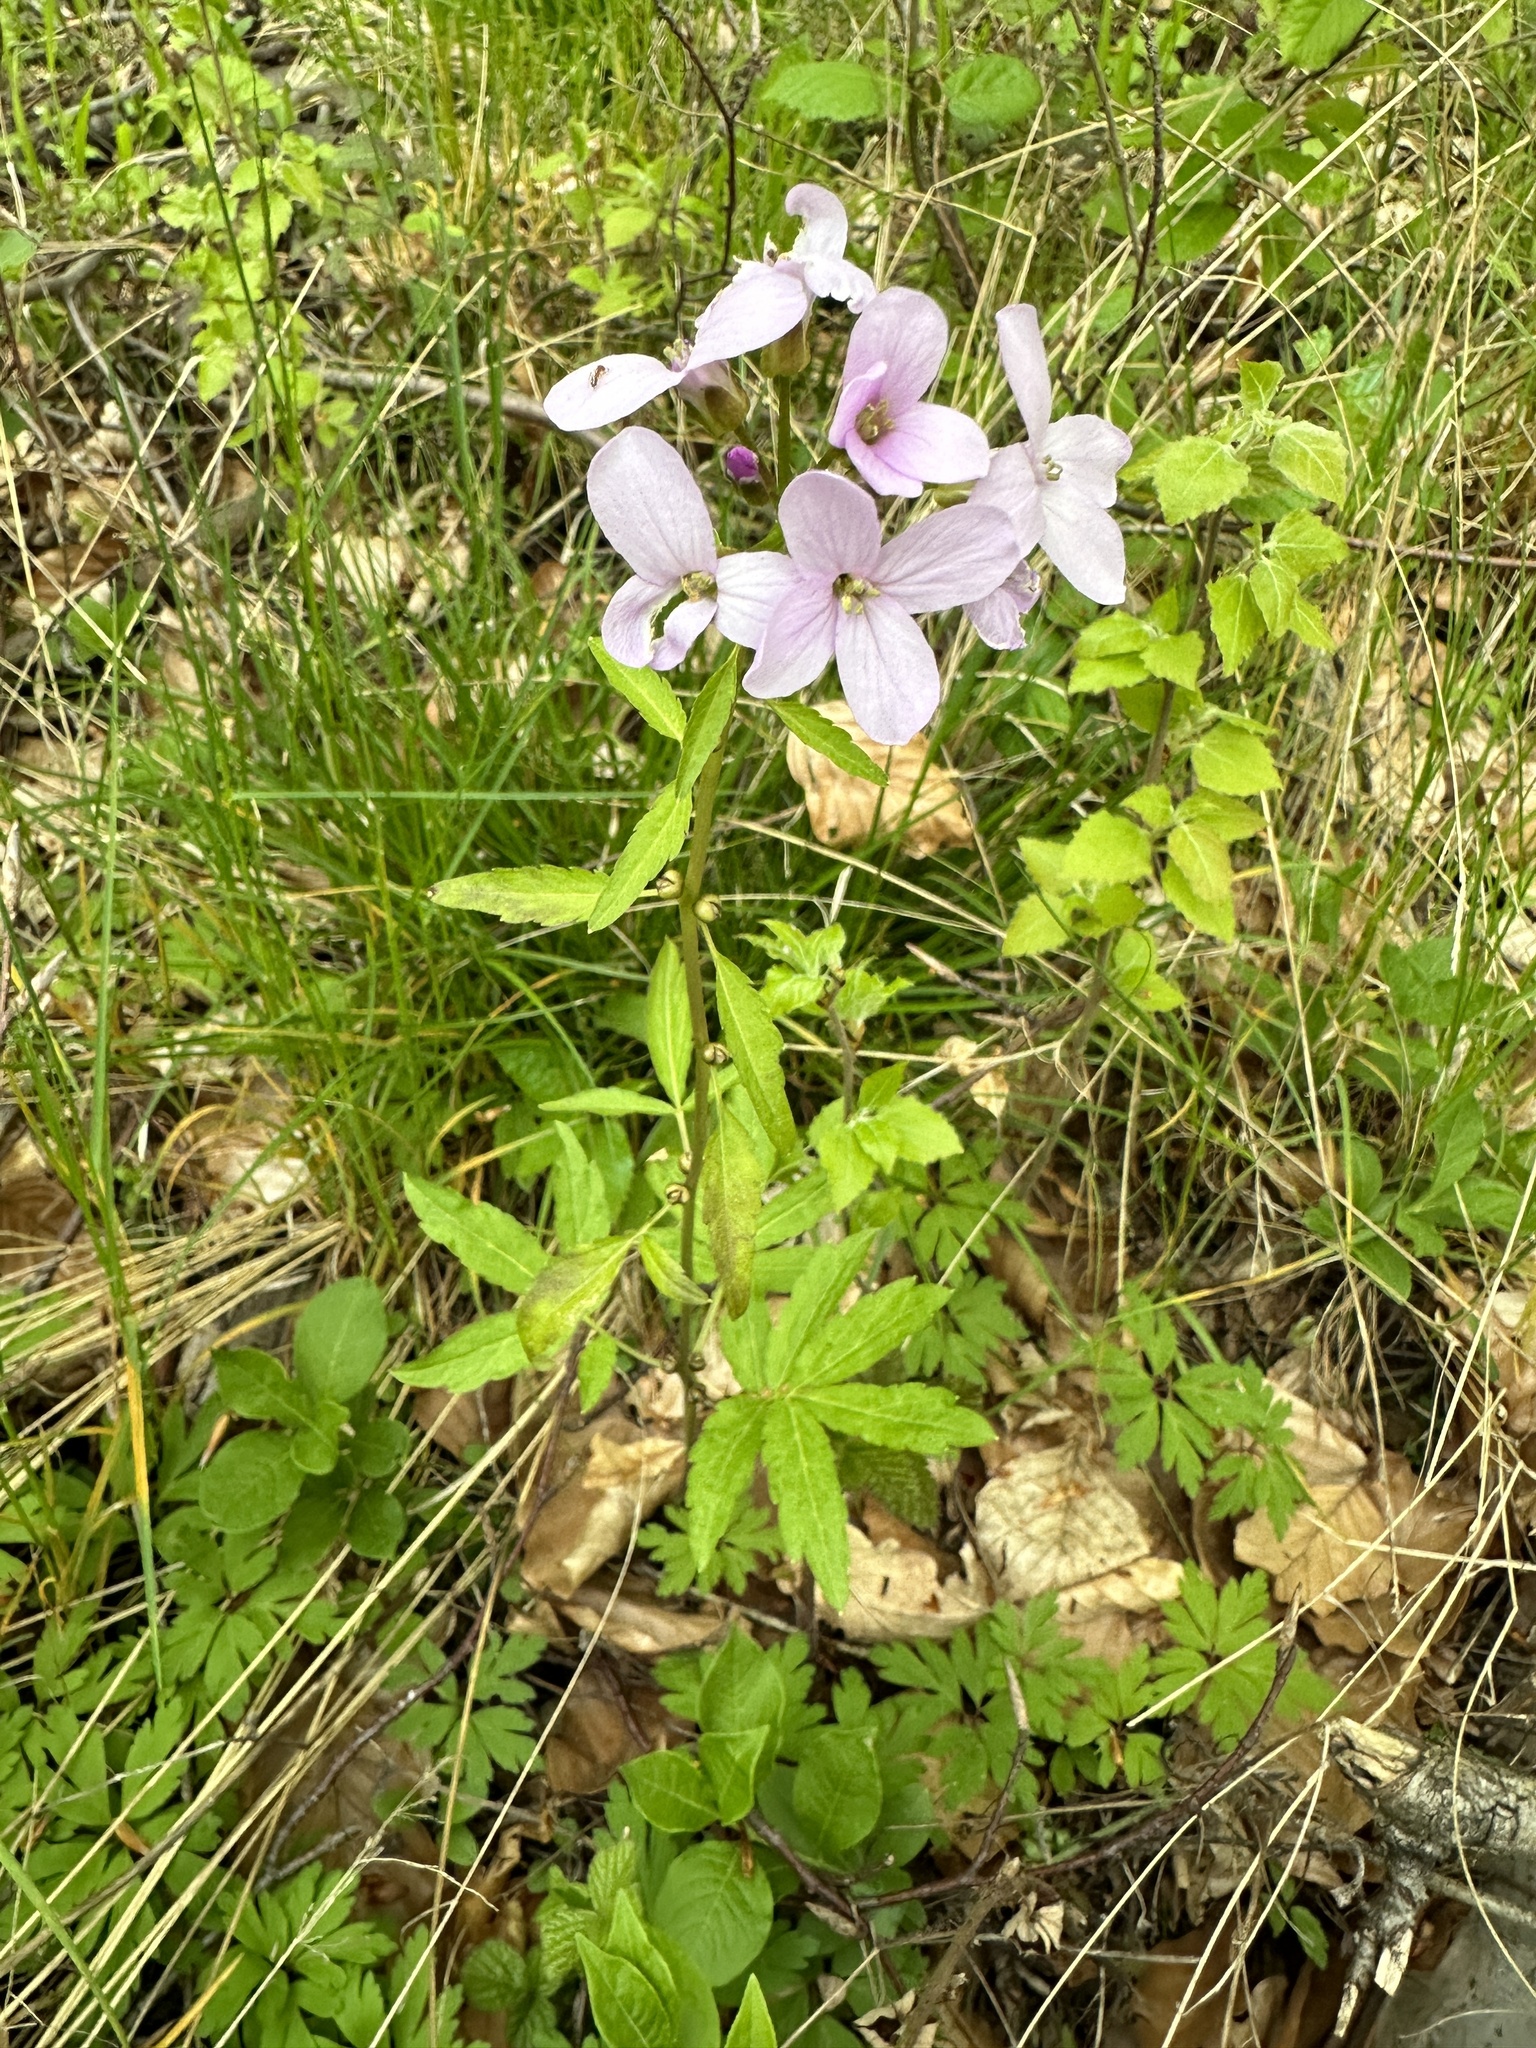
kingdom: Plantae
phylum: Tracheophyta
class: Magnoliopsida
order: Brassicales
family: Brassicaceae
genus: Cardamine
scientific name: Cardamine bulbifera
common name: Coralroot bittercress
